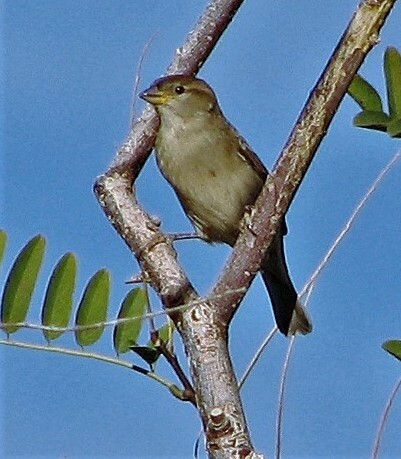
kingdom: Animalia
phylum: Chordata
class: Aves
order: Passeriformes
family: Passeridae
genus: Passer
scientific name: Passer domesticus
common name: House sparrow
